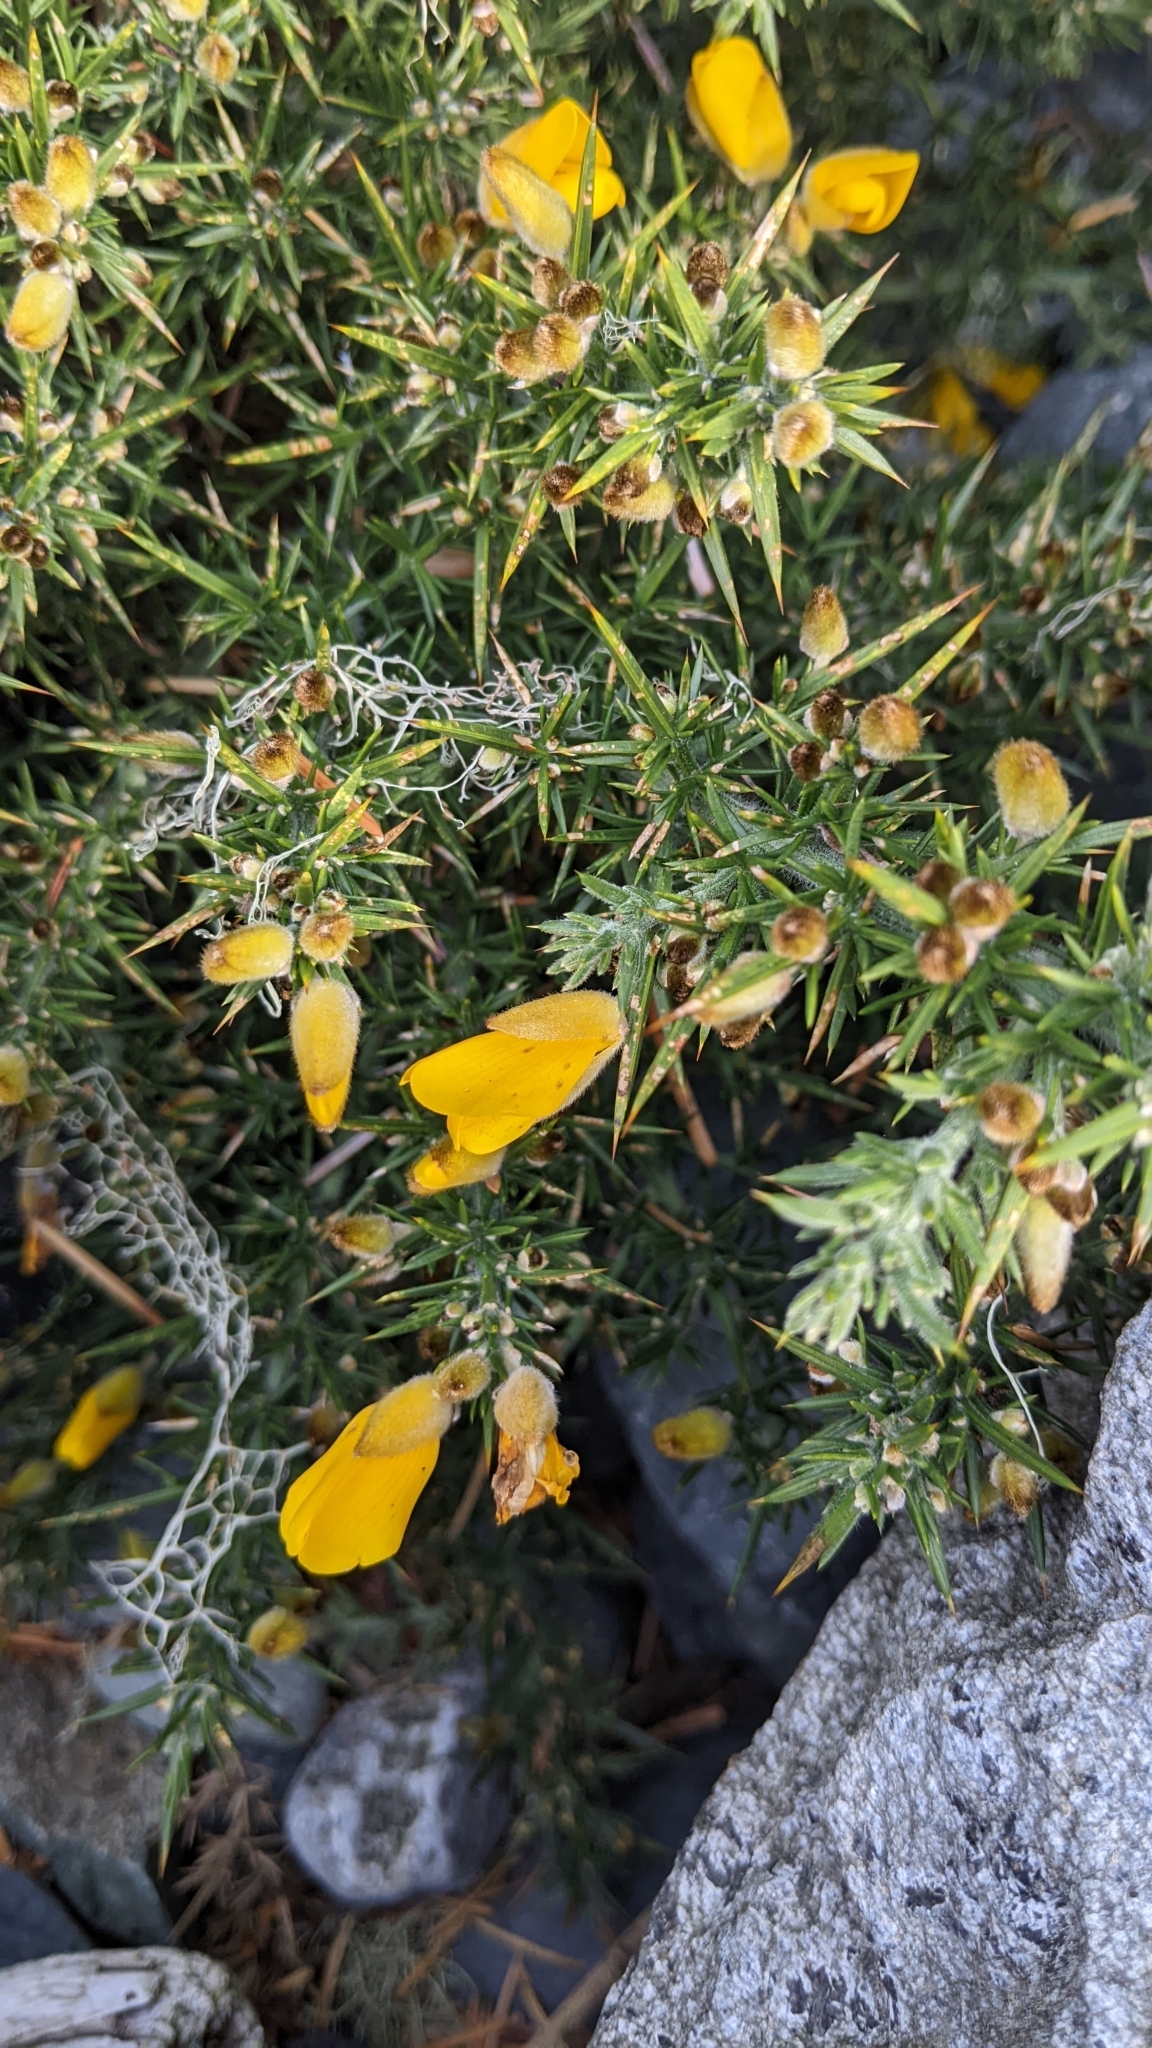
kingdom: Plantae
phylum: Tracheophyta
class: Magnoliopsida
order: Fabales
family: Fabaceae
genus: Ulex
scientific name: Ulex europaeus
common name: Common gorse
